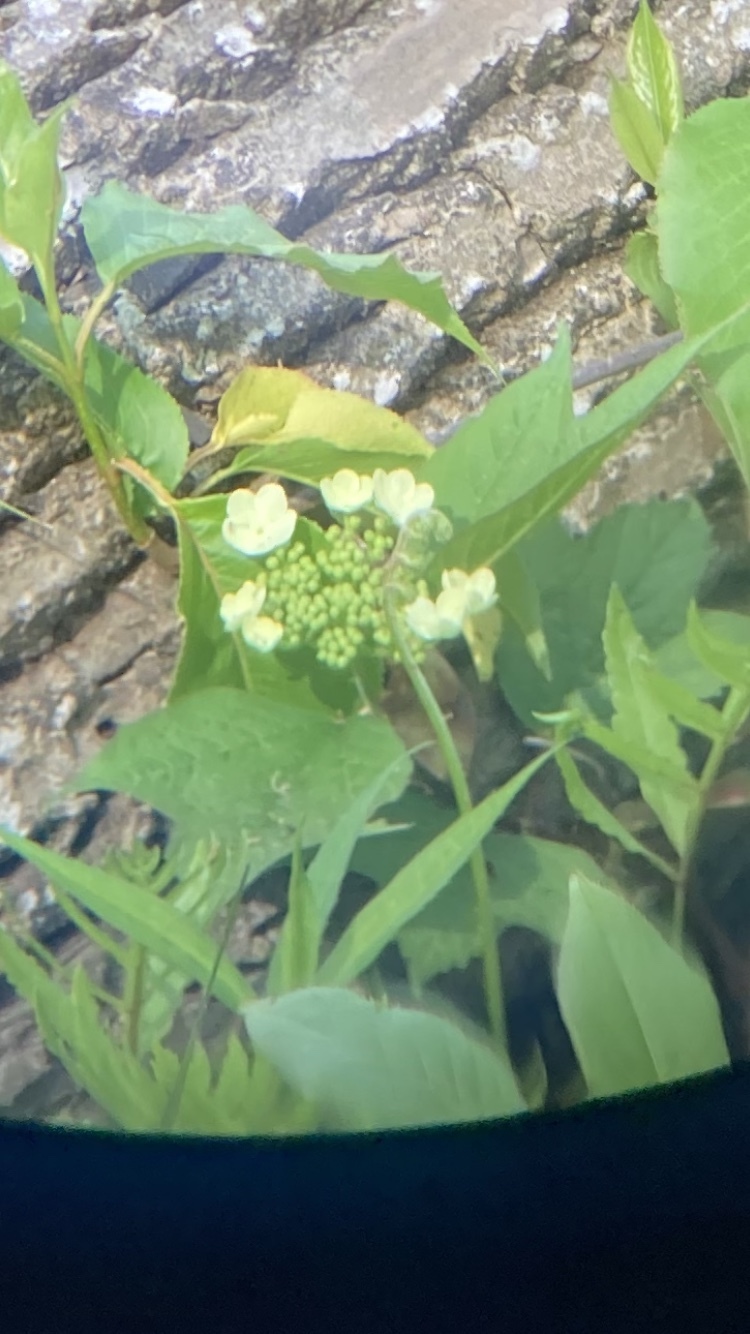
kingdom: Plantae
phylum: Tracheophyta
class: Magnoliopsida
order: Dipsacales
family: Viburnaceae
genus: Viburnum
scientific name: Viburnum opulus
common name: Guelder-rose
